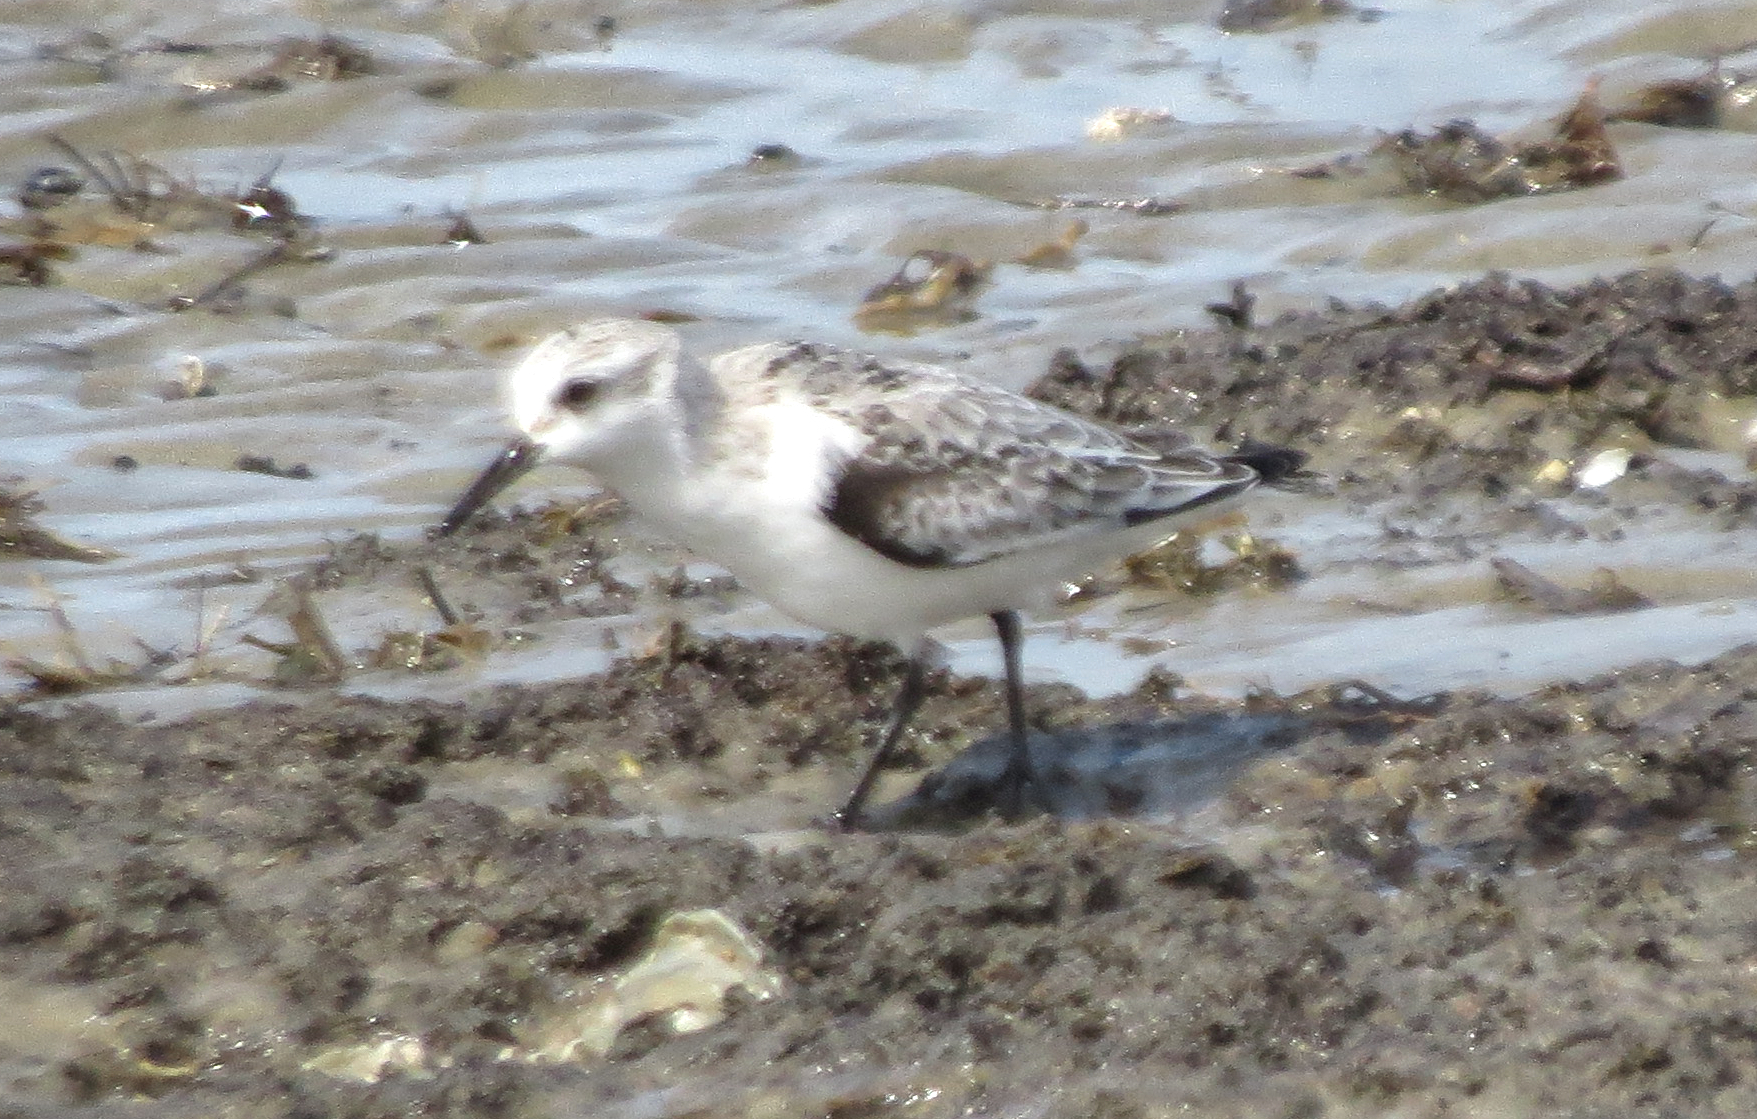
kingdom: Animalia
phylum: Chordata
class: Aves
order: Charadriiformes
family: Scolopacidae
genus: Calidris
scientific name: Calidris alba
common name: Sanderling
